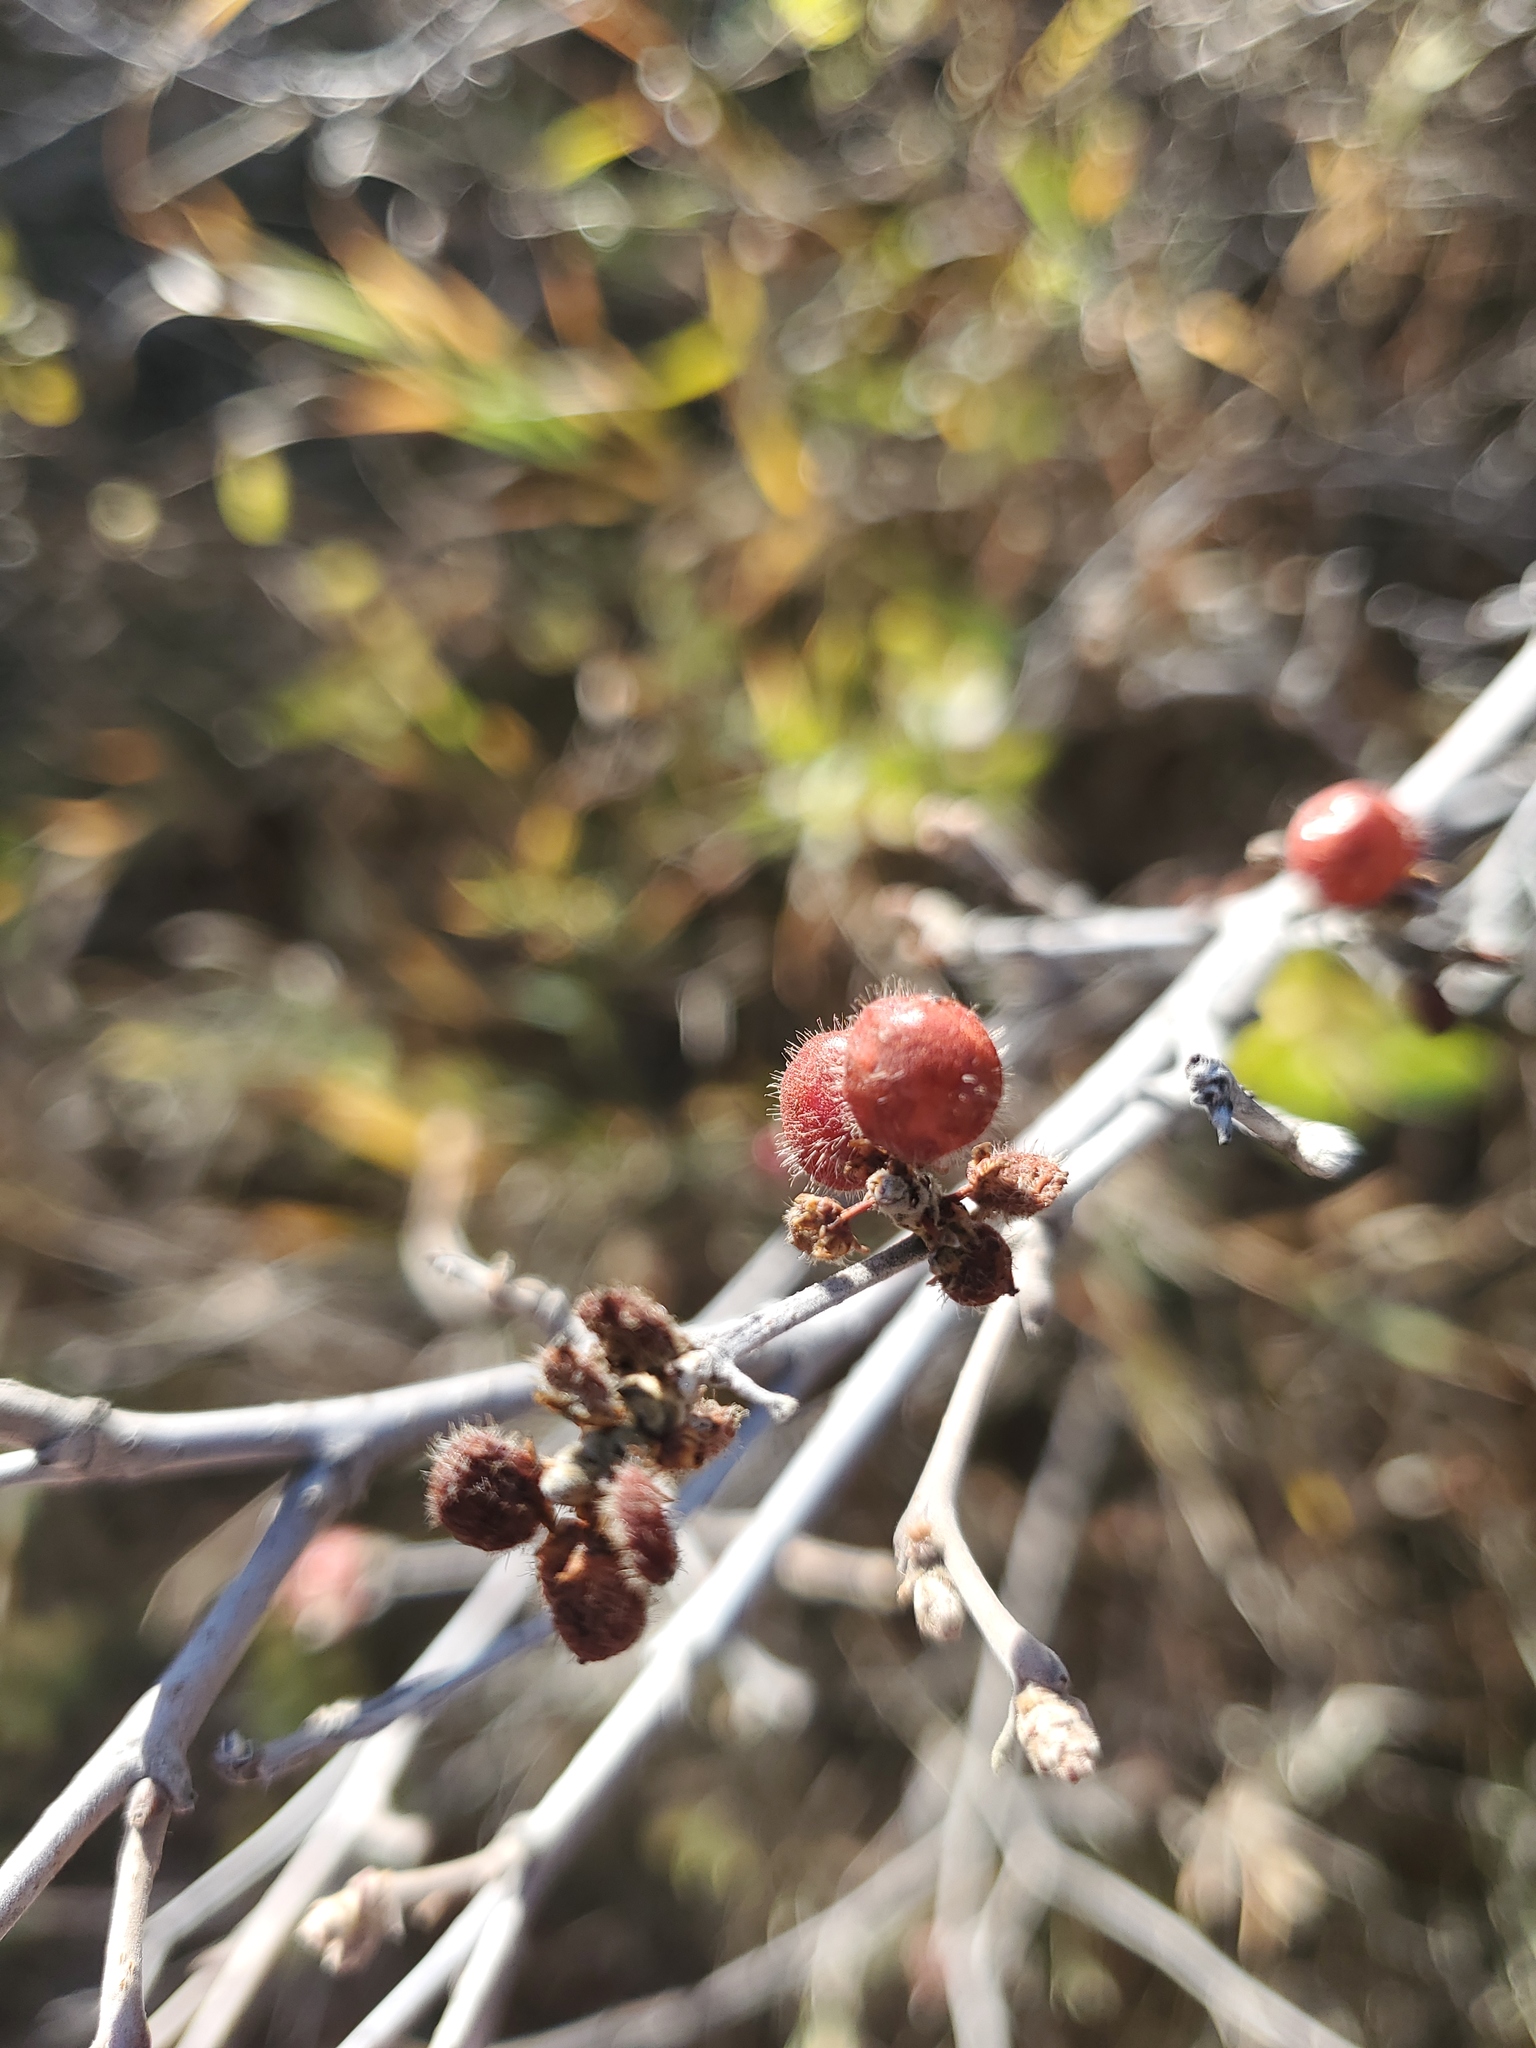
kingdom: Plantae
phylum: Tracheophyta
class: Magnoliopsida
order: Sapindales
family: Anacardiaceae
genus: Rhus
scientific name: Rhus aromatica
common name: Aromatic sumac
